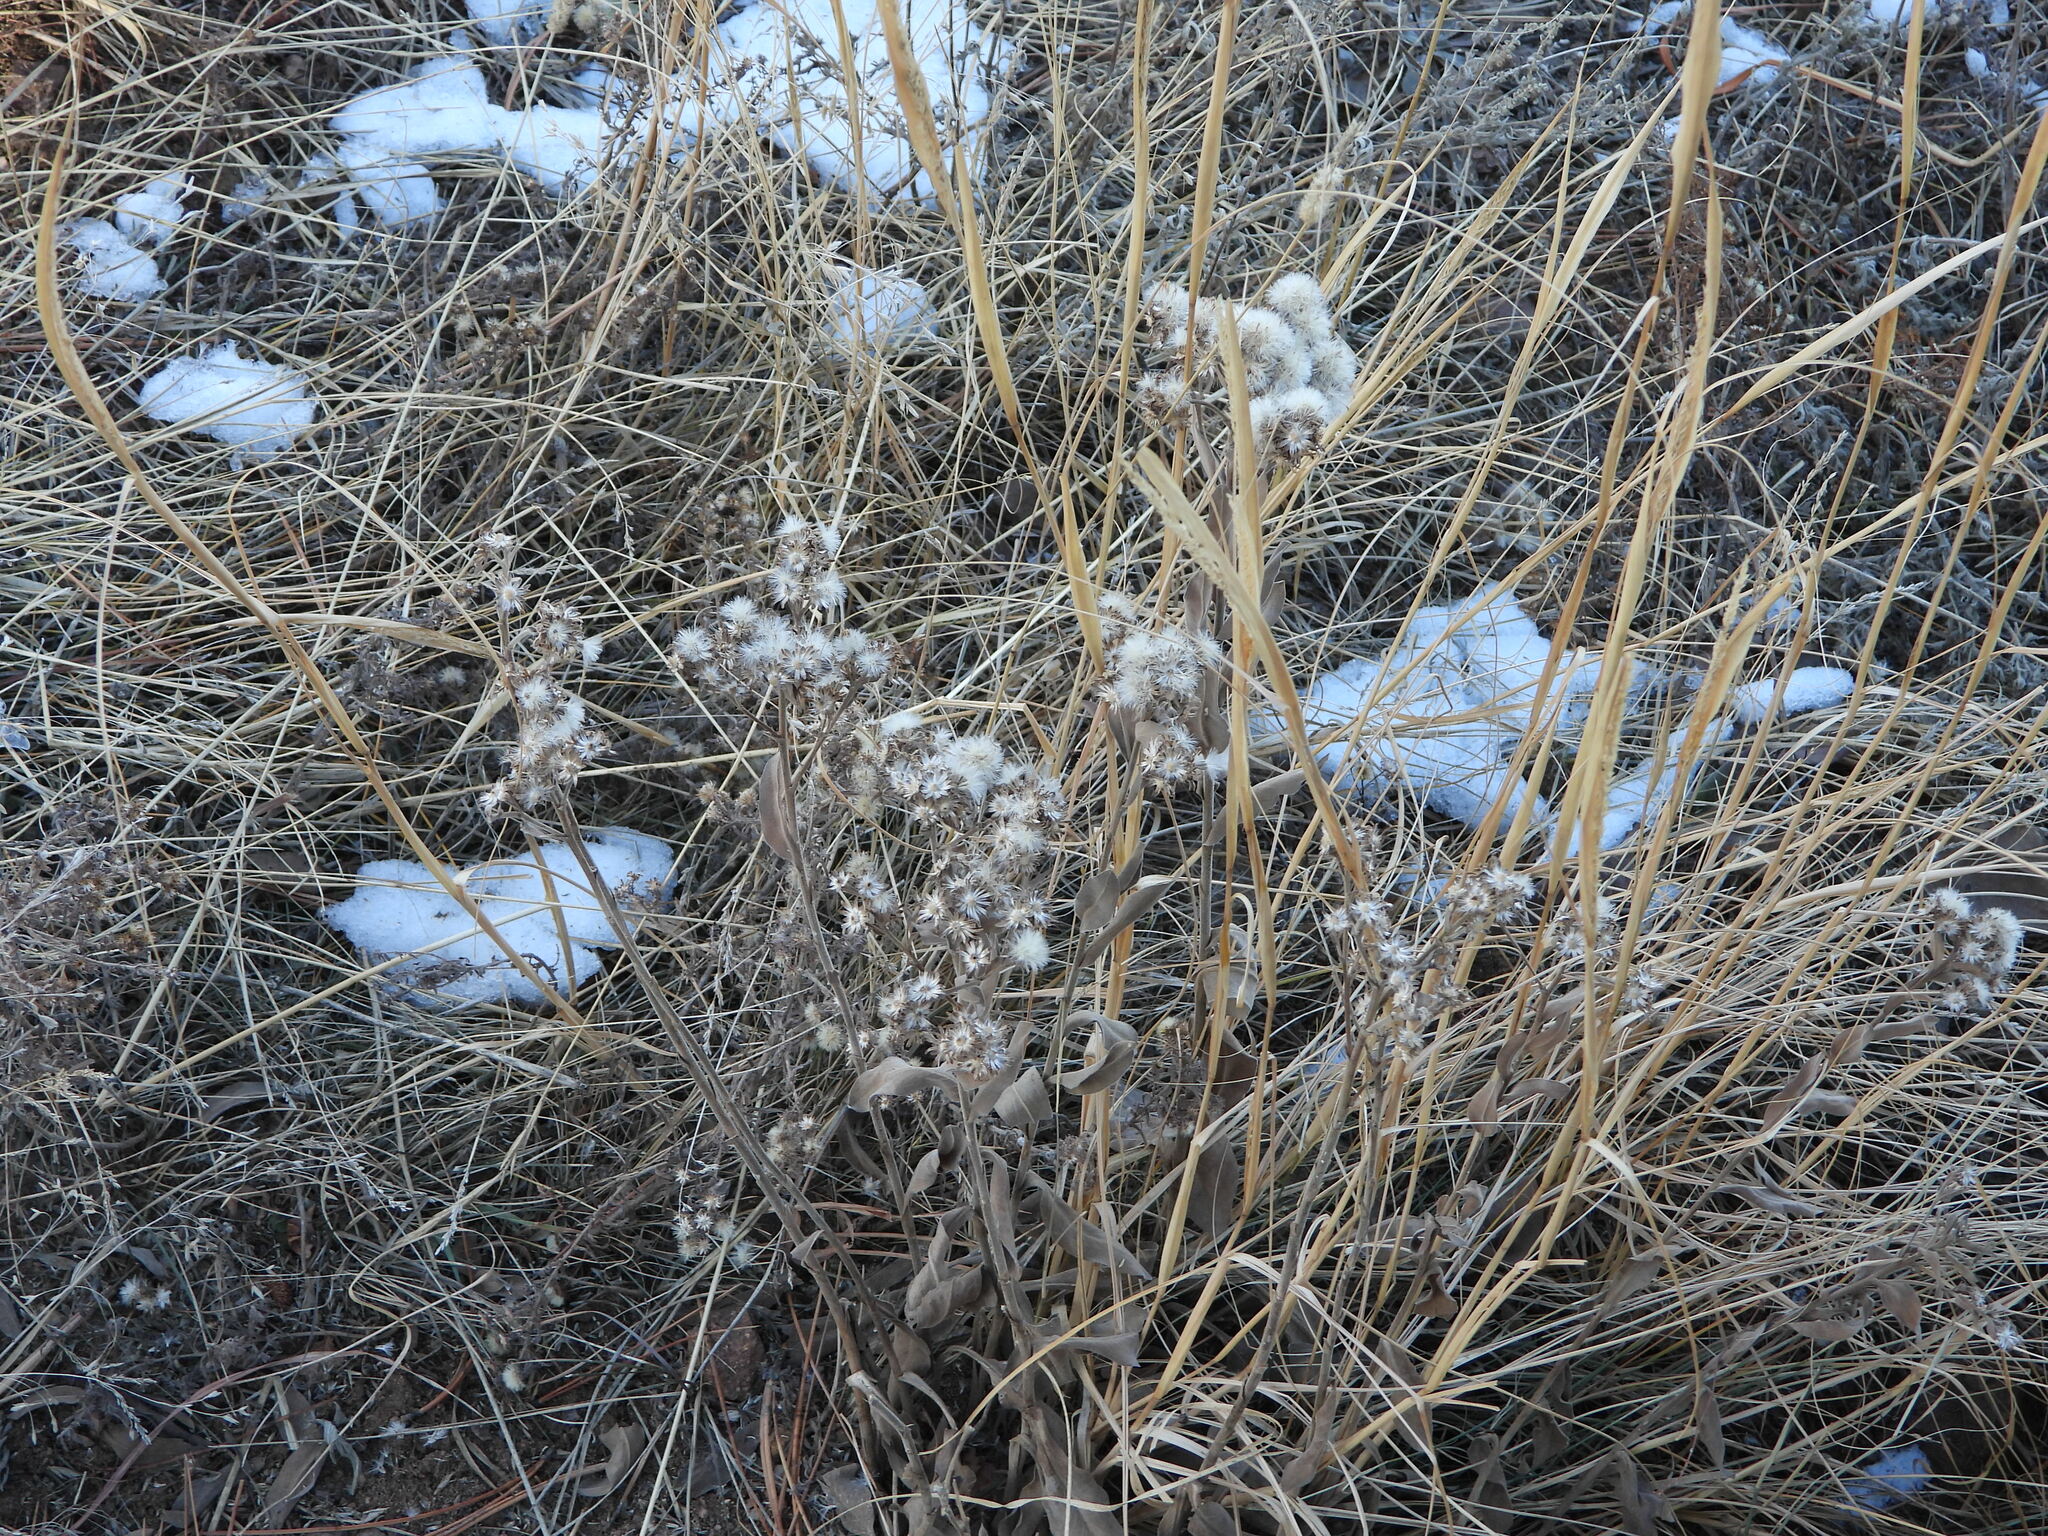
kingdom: Plantae
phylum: Tracheophyta
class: Magnoliopsida
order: Asterales
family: Asteraceae
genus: Solidago
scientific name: Solidago rigida
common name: Rigid goldenrod
